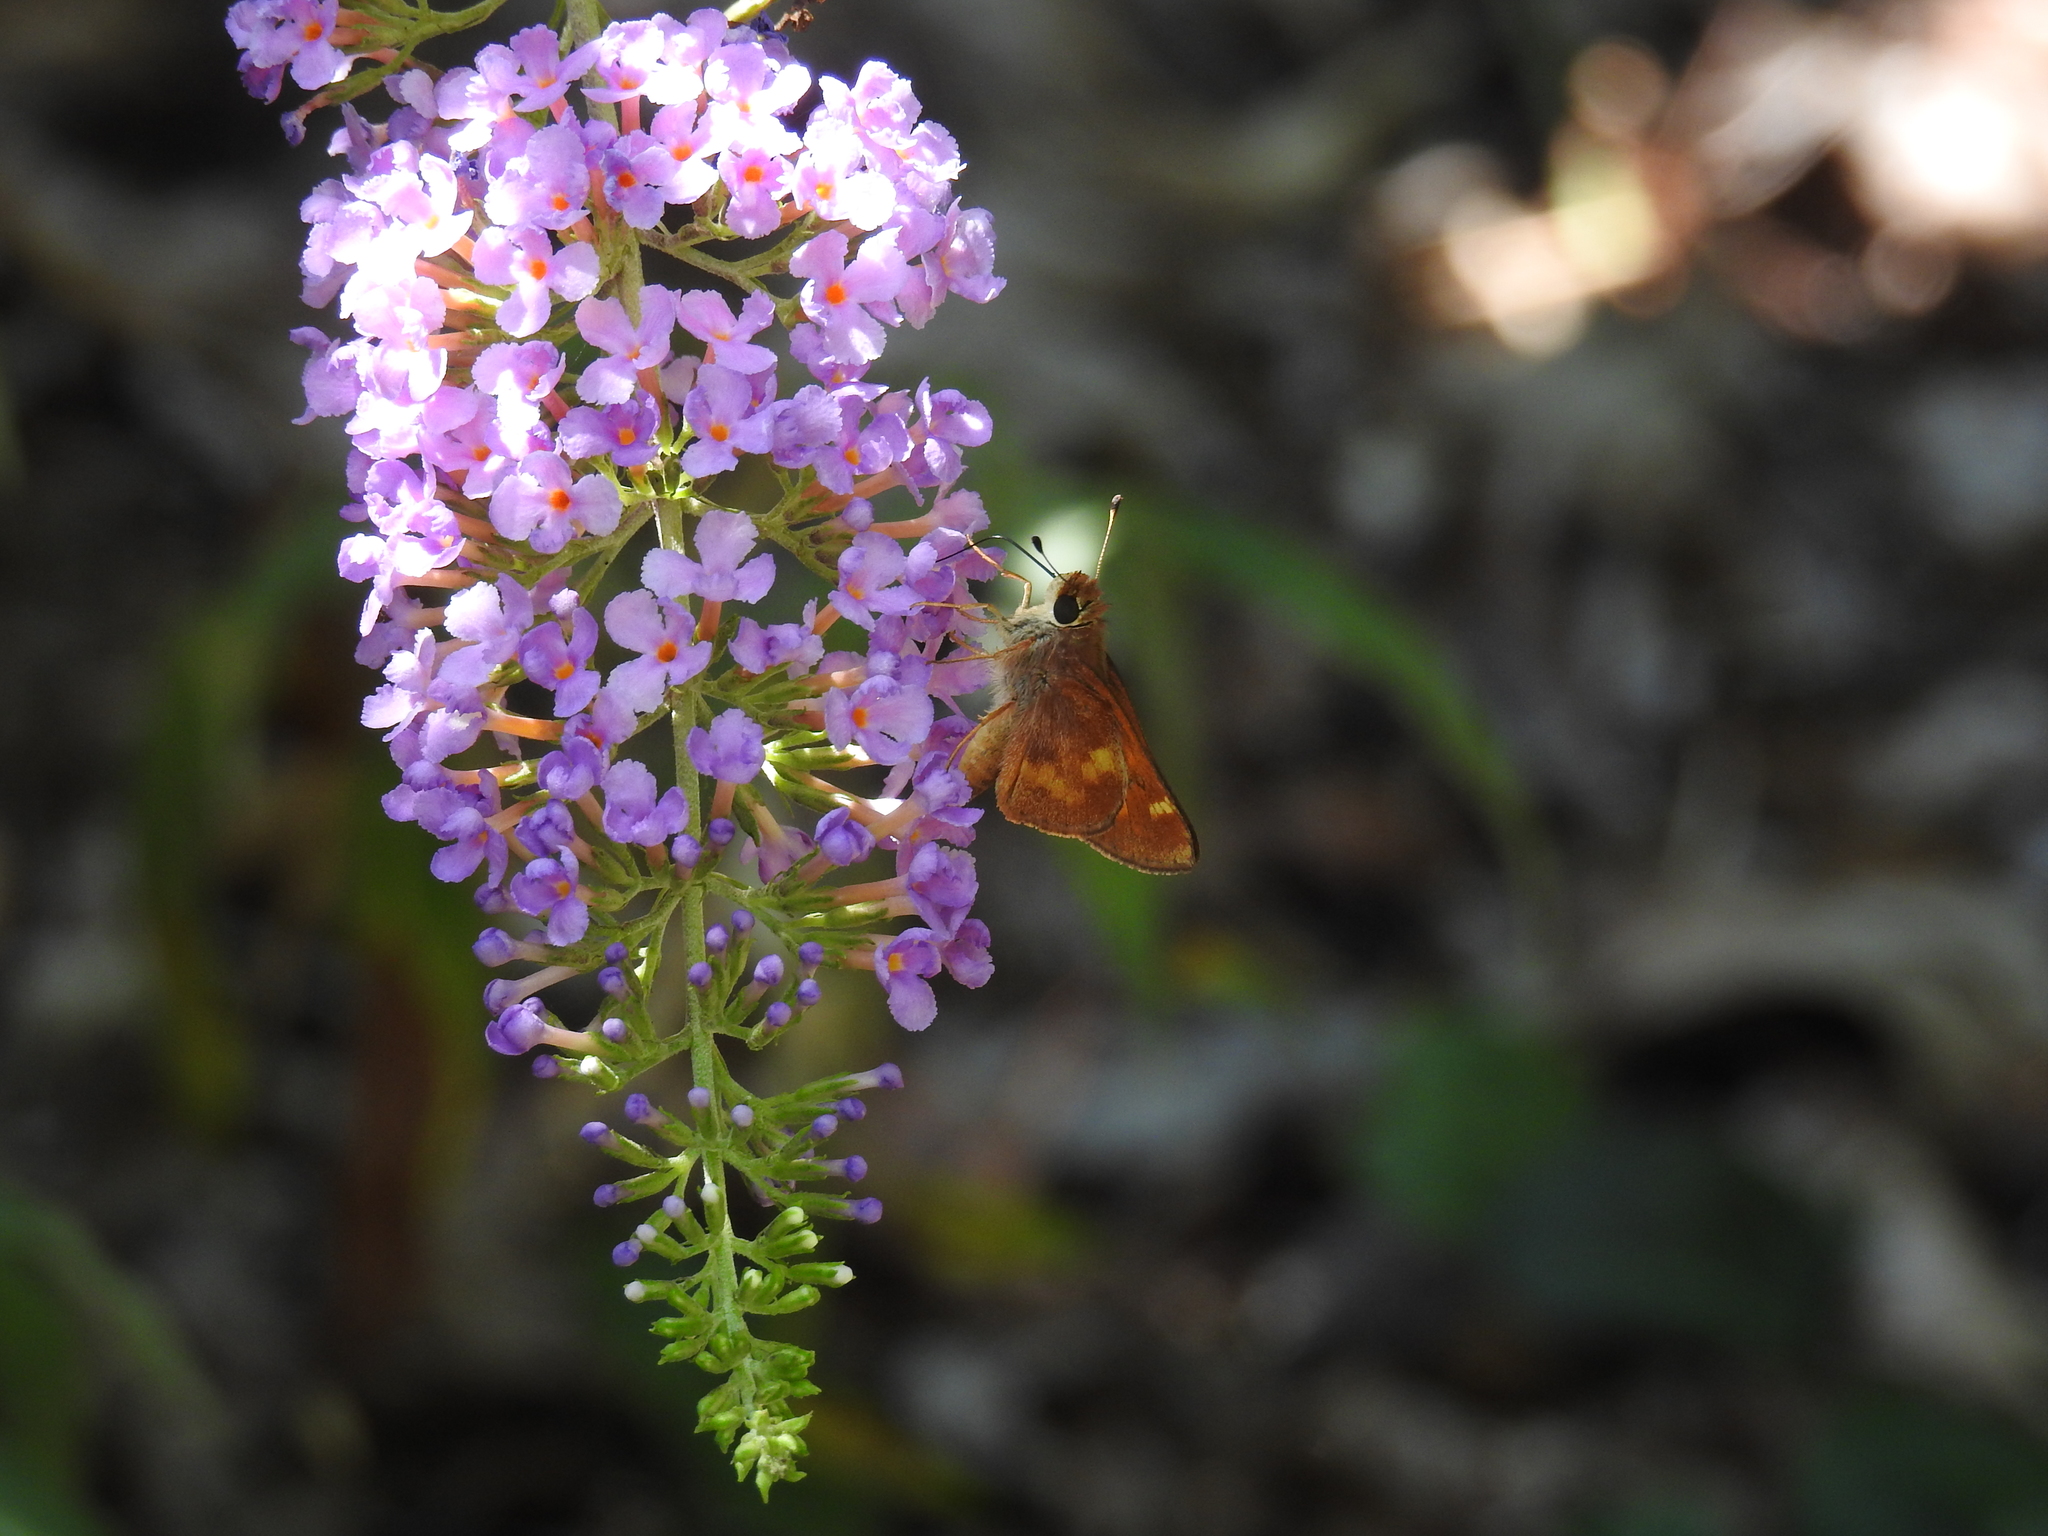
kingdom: Animalia
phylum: Arthropoda
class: Insecta
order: Lepidoptera
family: Hesperiidae
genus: Lon
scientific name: Lon melane
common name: Umber skipper
